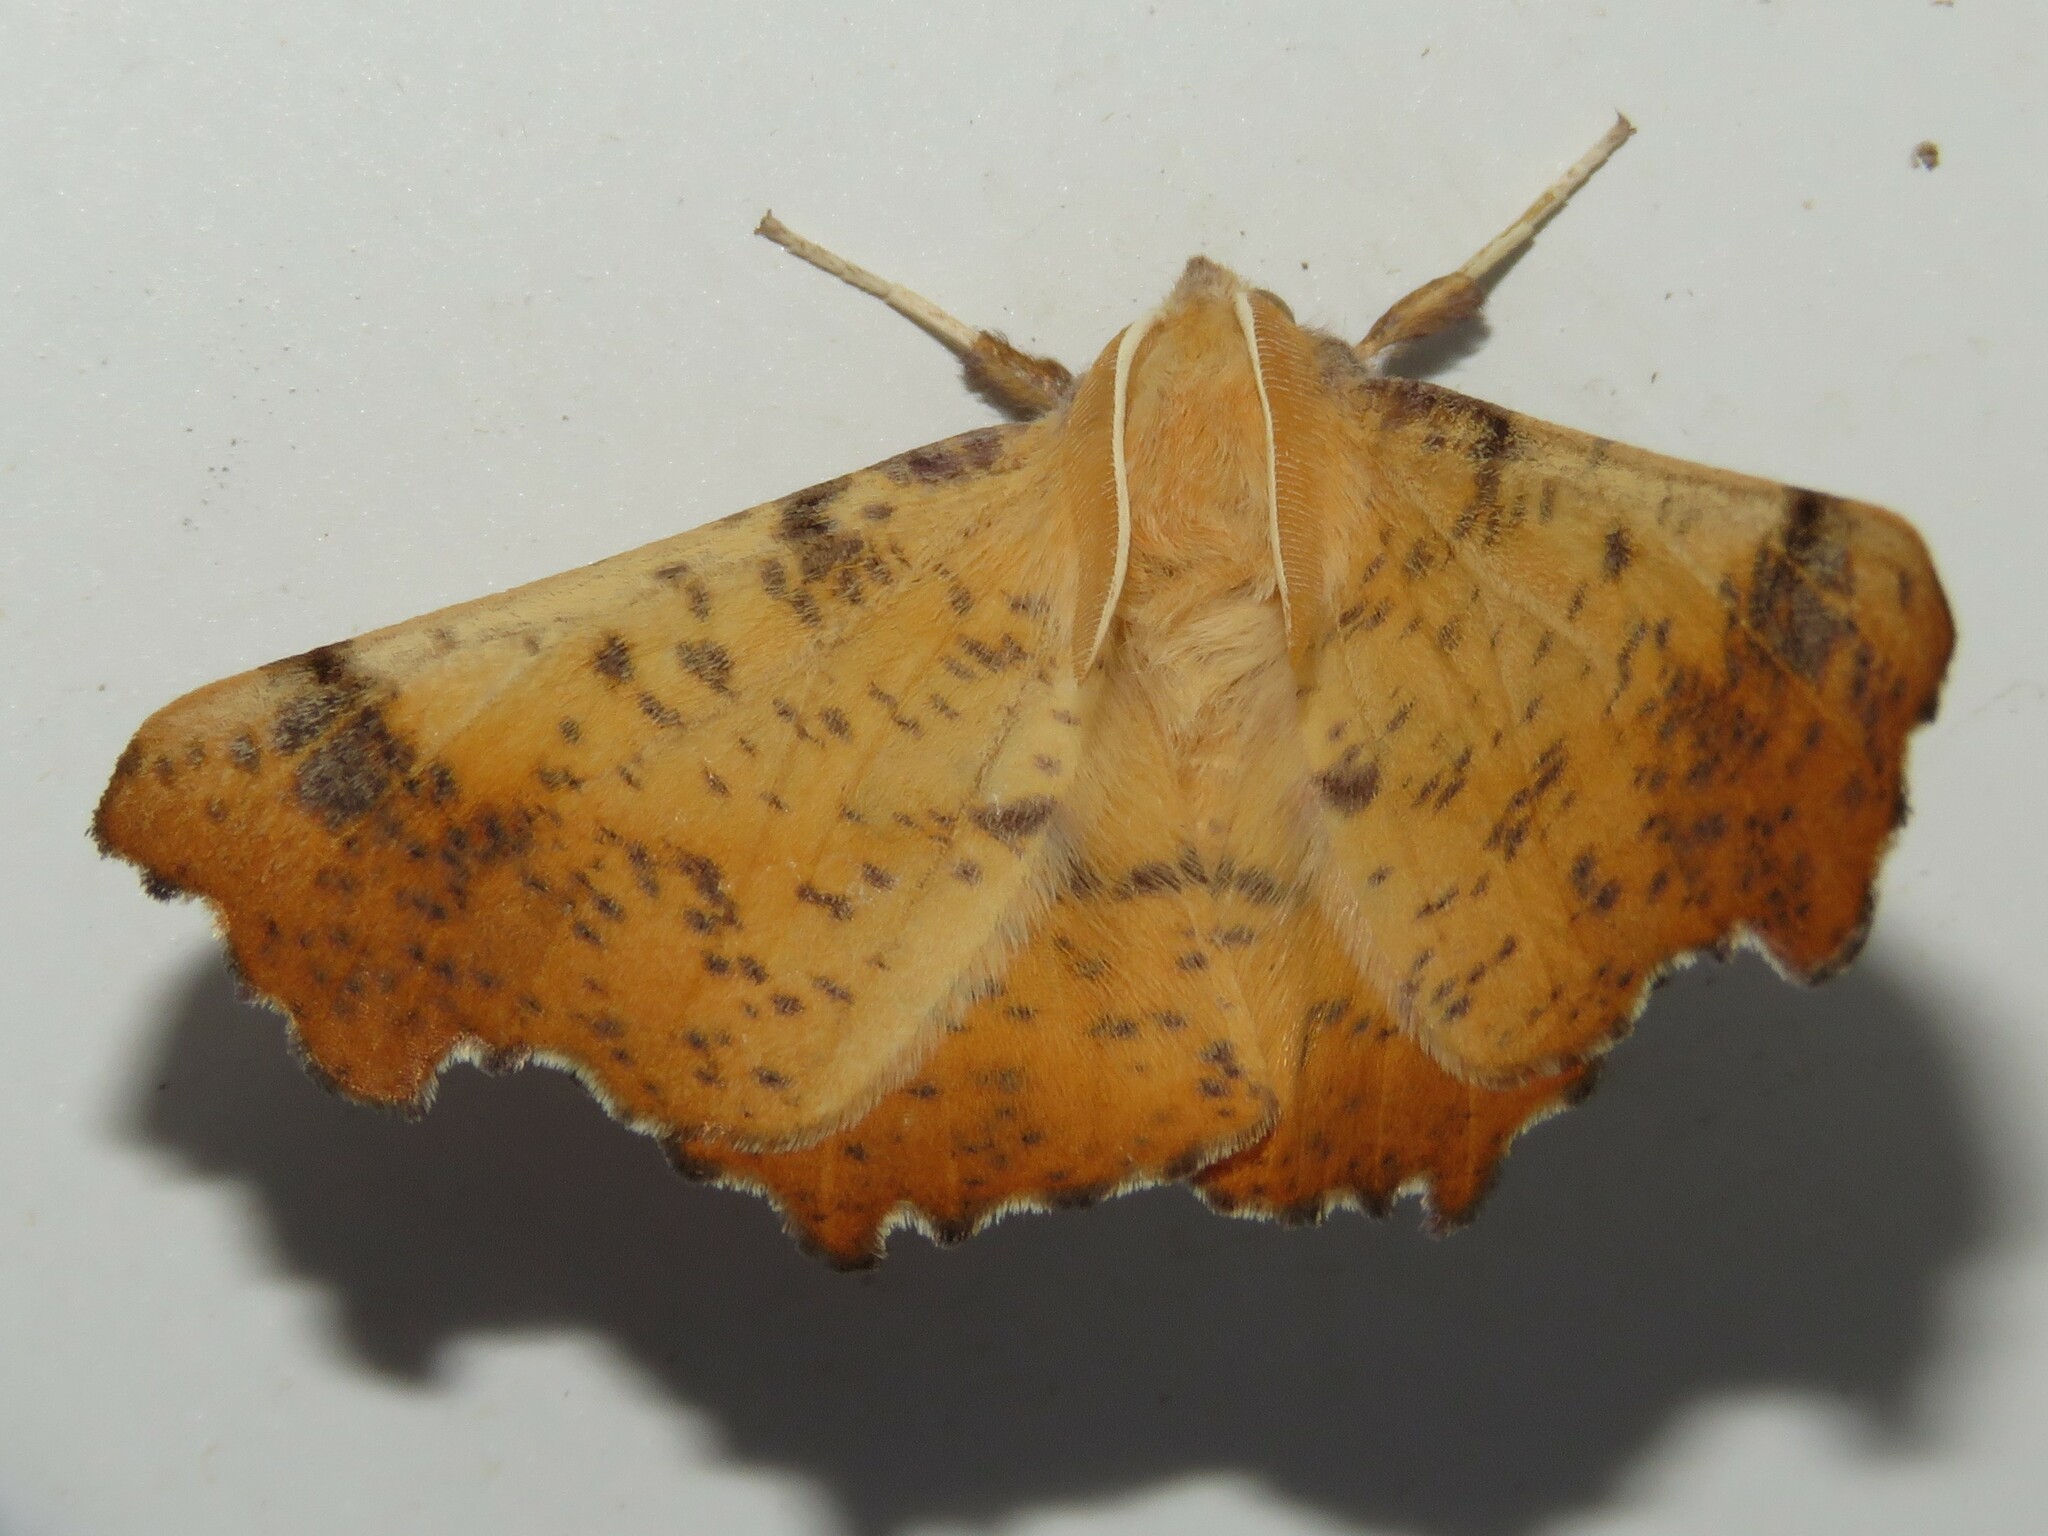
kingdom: Animalia
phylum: Arthropoda
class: Insecta
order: Lepidoptera
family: Geometridae
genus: Ennomos
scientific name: Ennomos magnaria
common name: Maple spanworm
